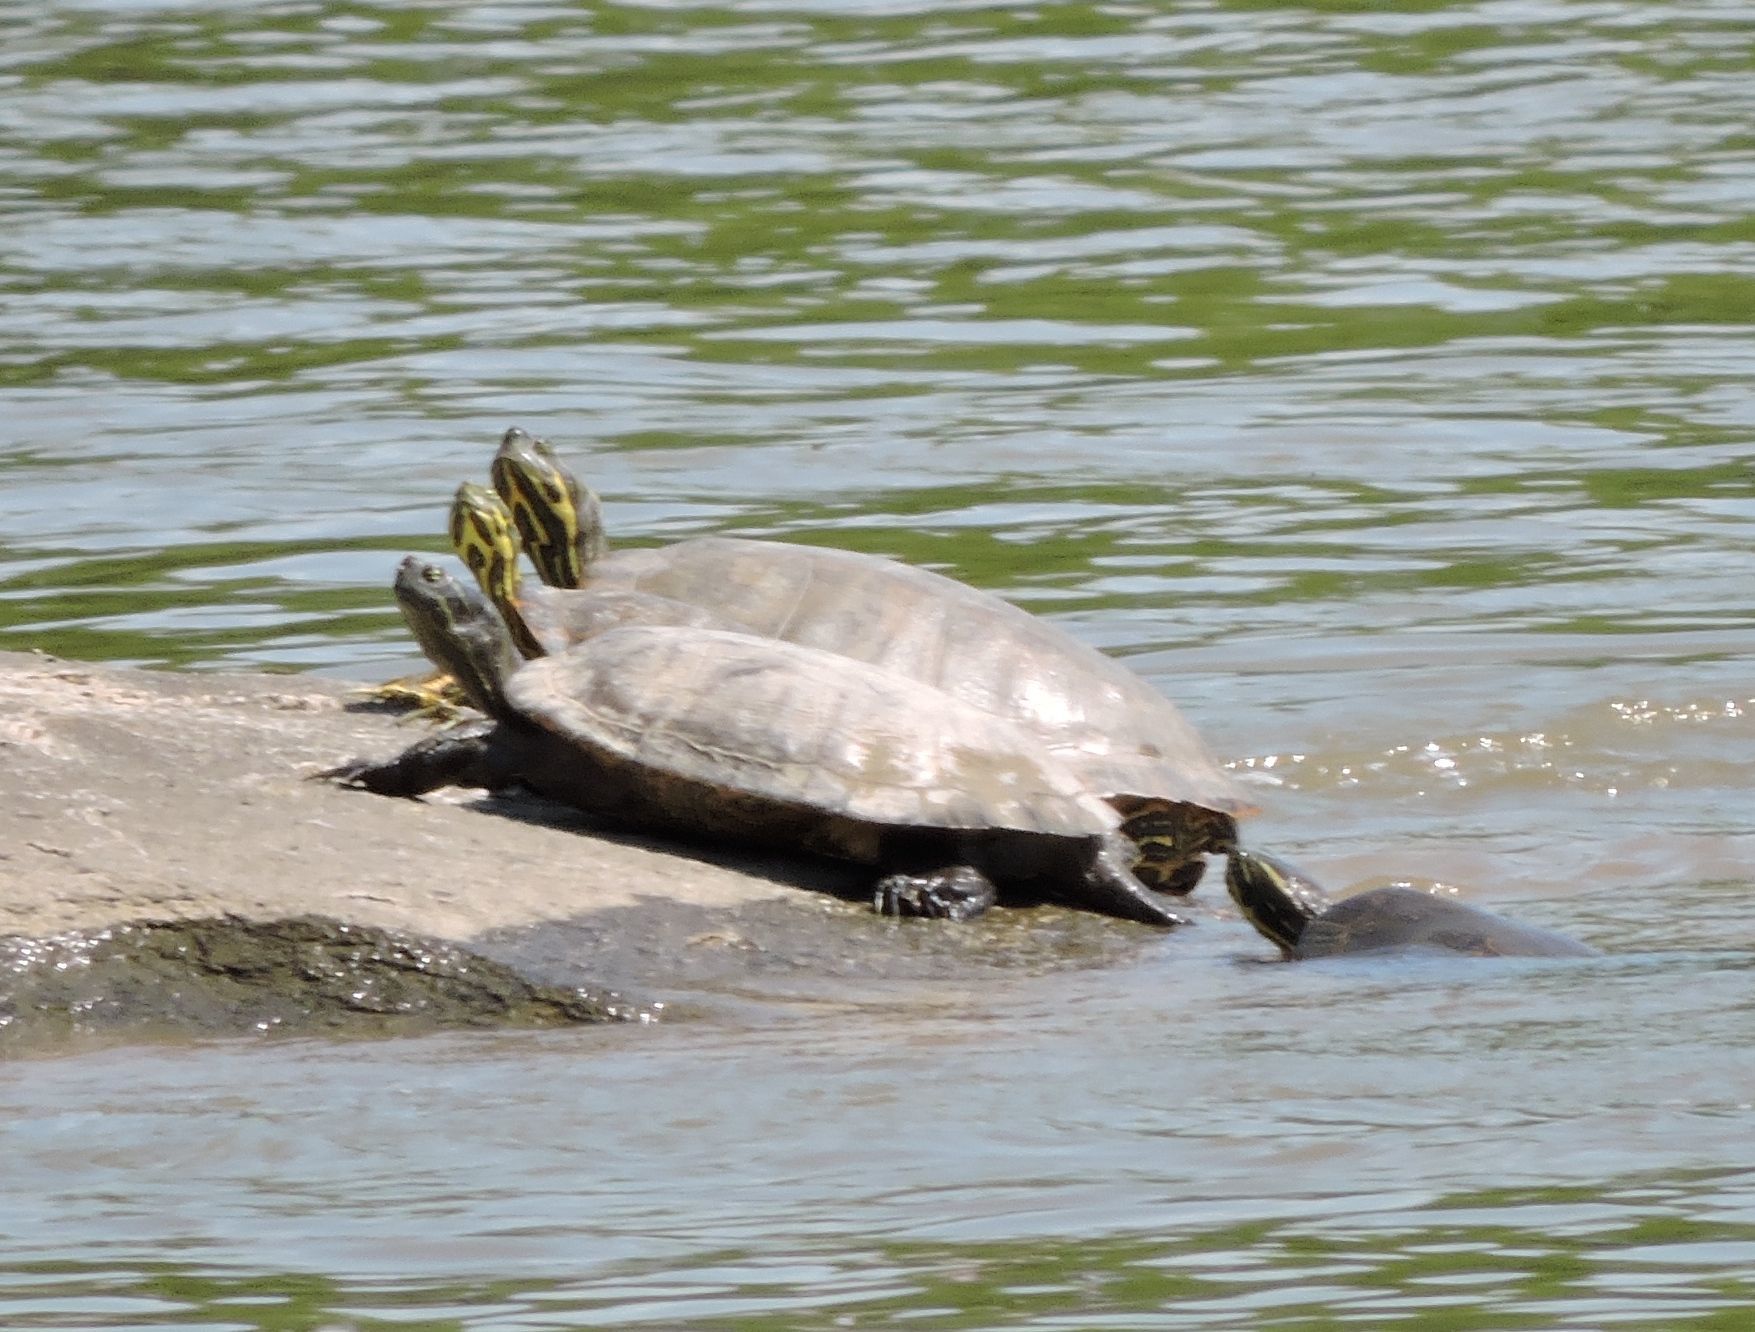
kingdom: Animalia
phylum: Chordata
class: Testudines
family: Emydidae
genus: Pseudemys
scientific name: Pseudemys concinna
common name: Eastern river cooter
